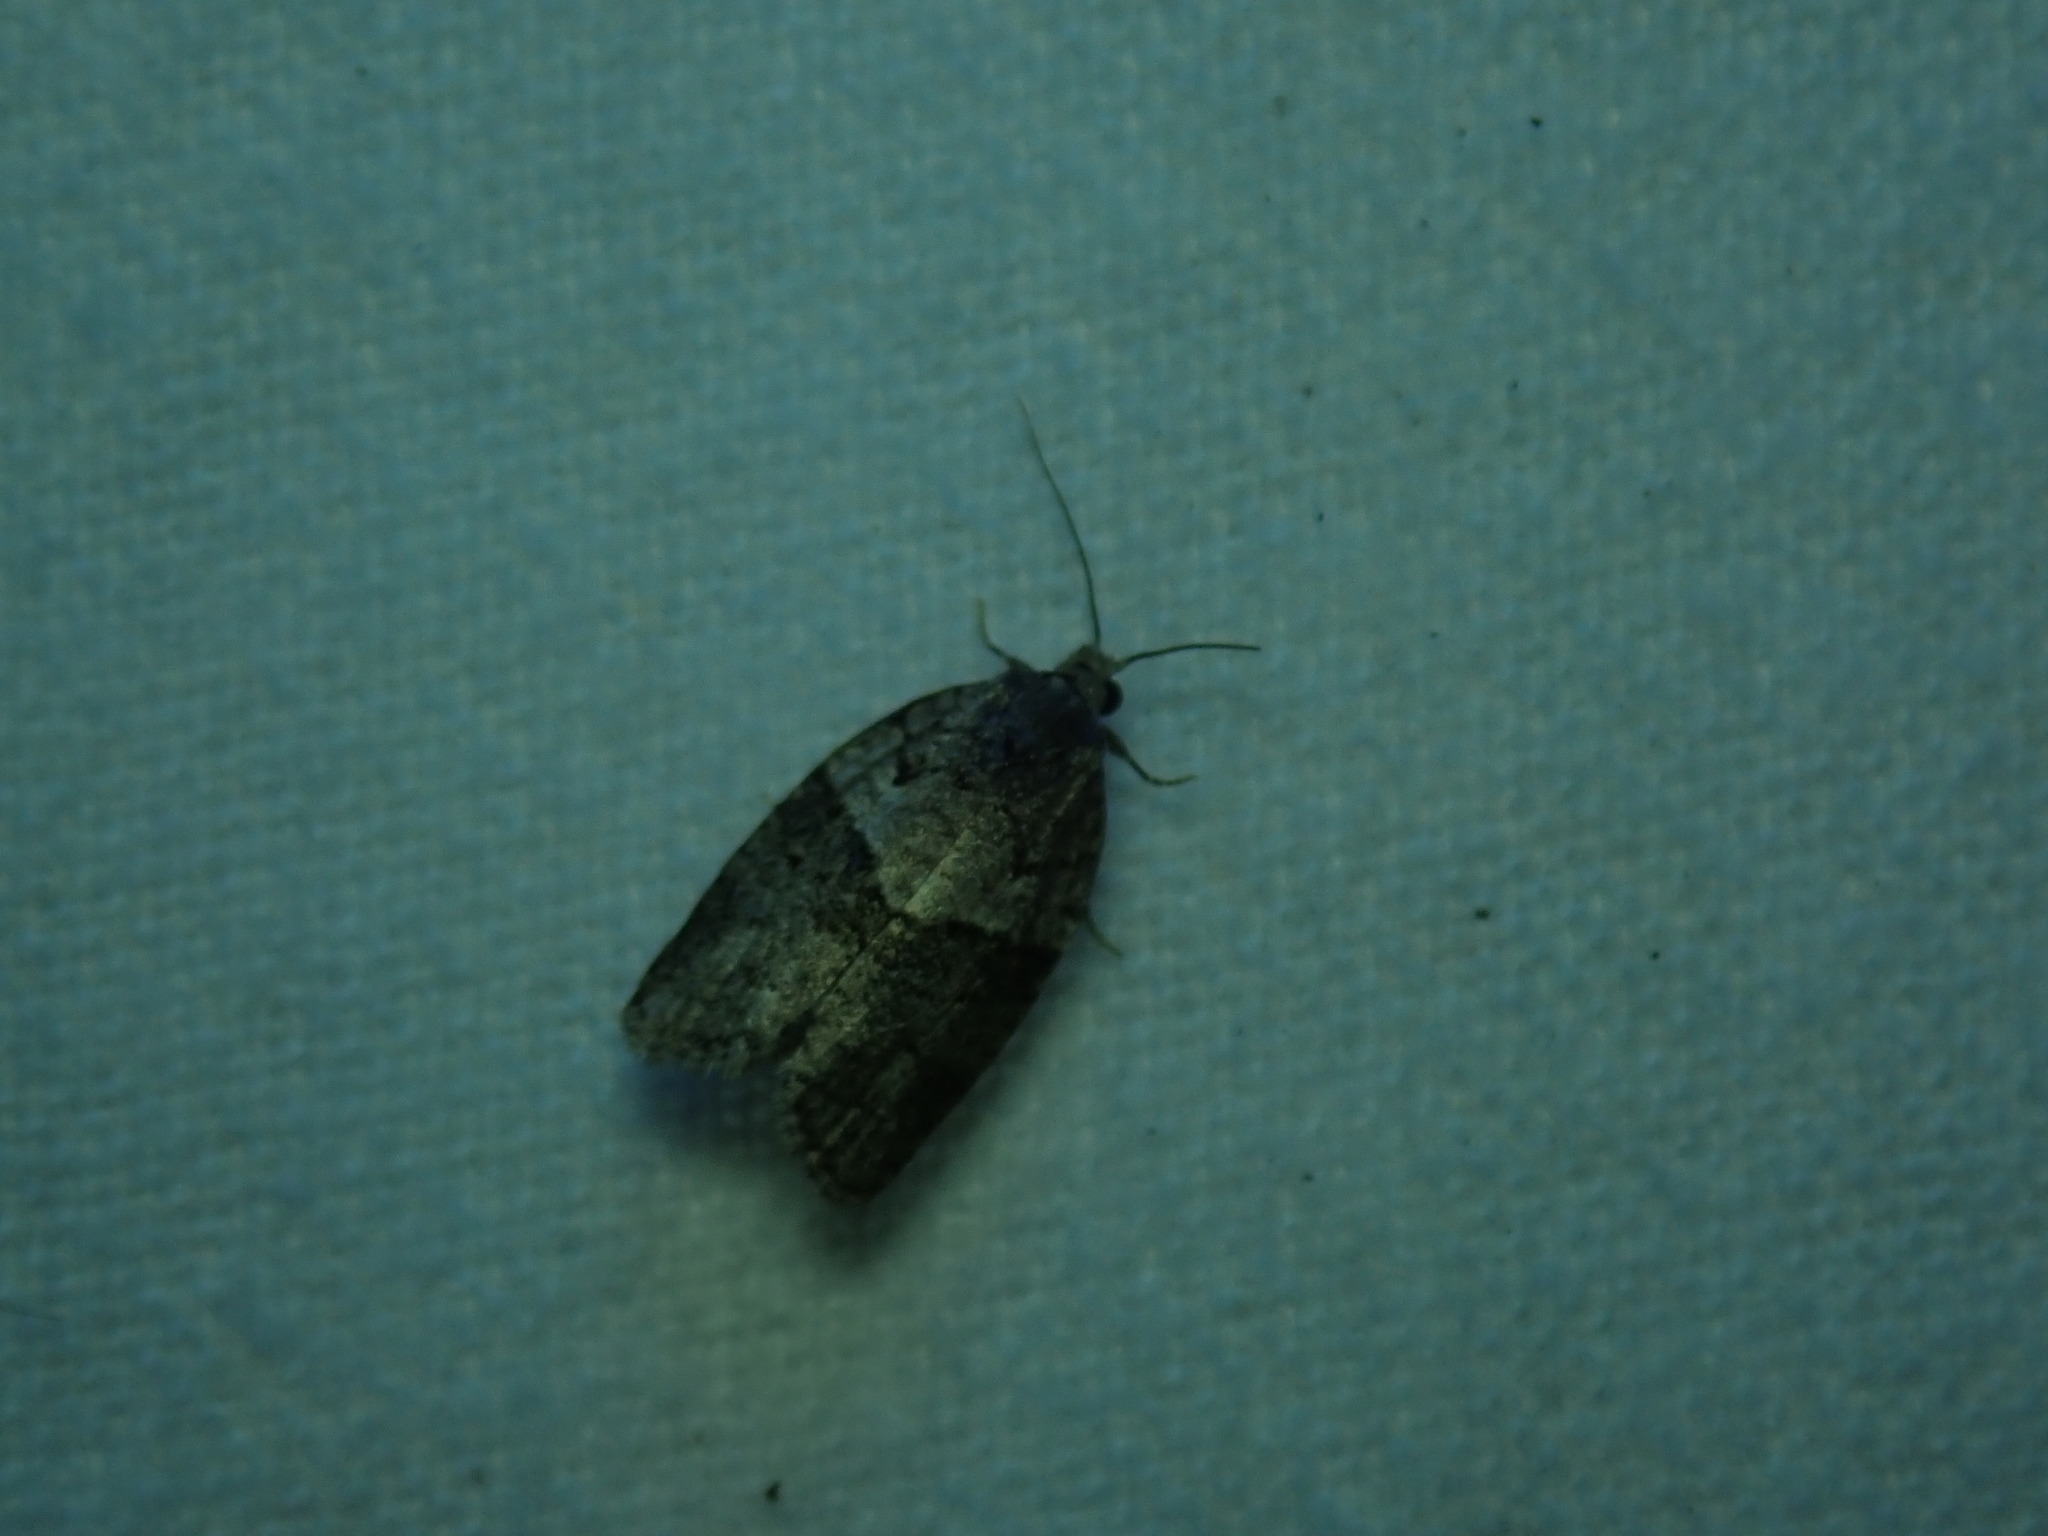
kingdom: Animalia
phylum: Arthropoda
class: Insecta
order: Lepidoptera
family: Tortricidae
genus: Syndemis
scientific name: Syndemis afflictana
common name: Gray leafroller moth
